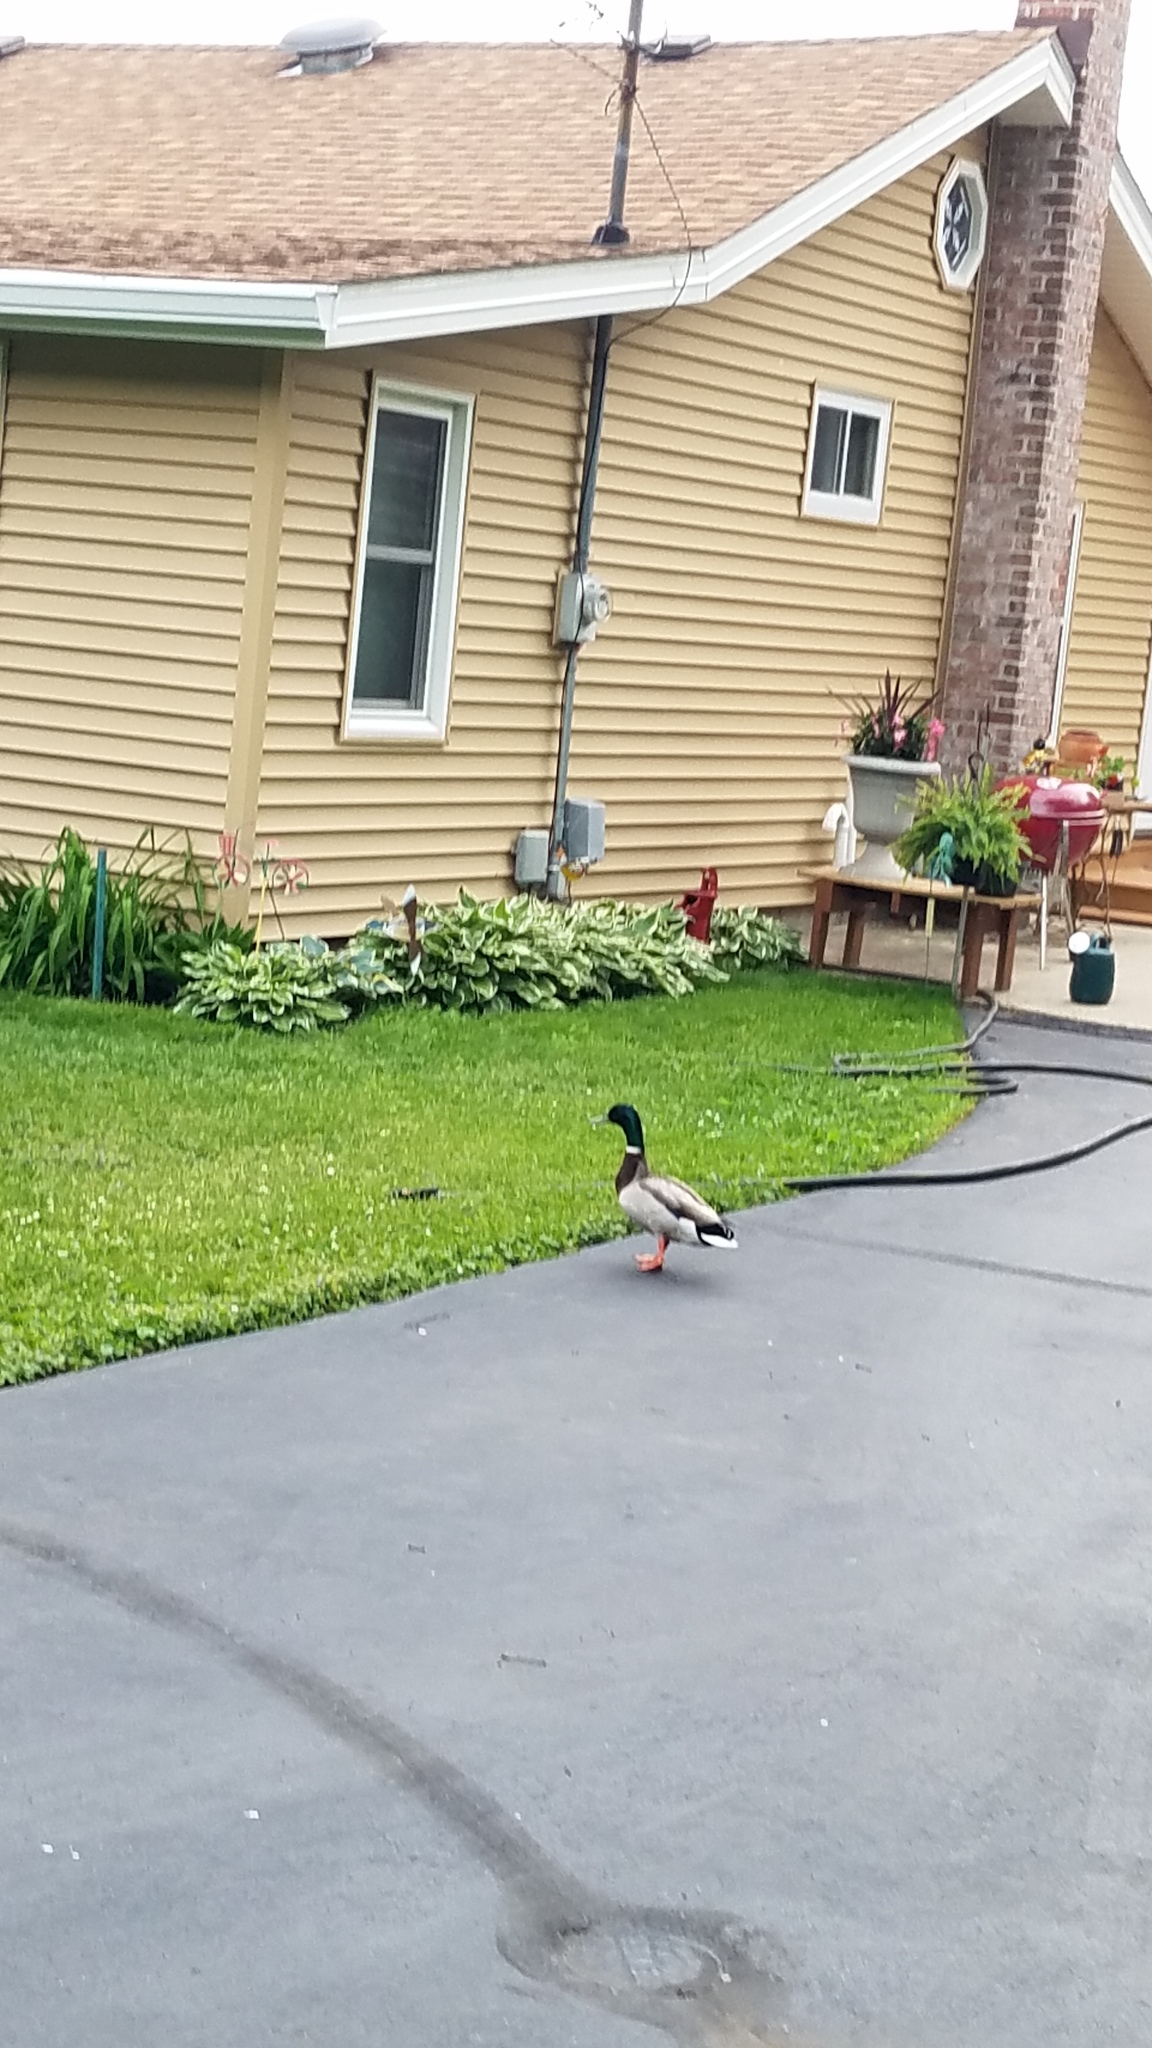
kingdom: Animalia
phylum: Chordata
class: Aves
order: Anseriformes
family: Anatidae
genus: Anas
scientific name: Anas platyrhynchos
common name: Mallard
